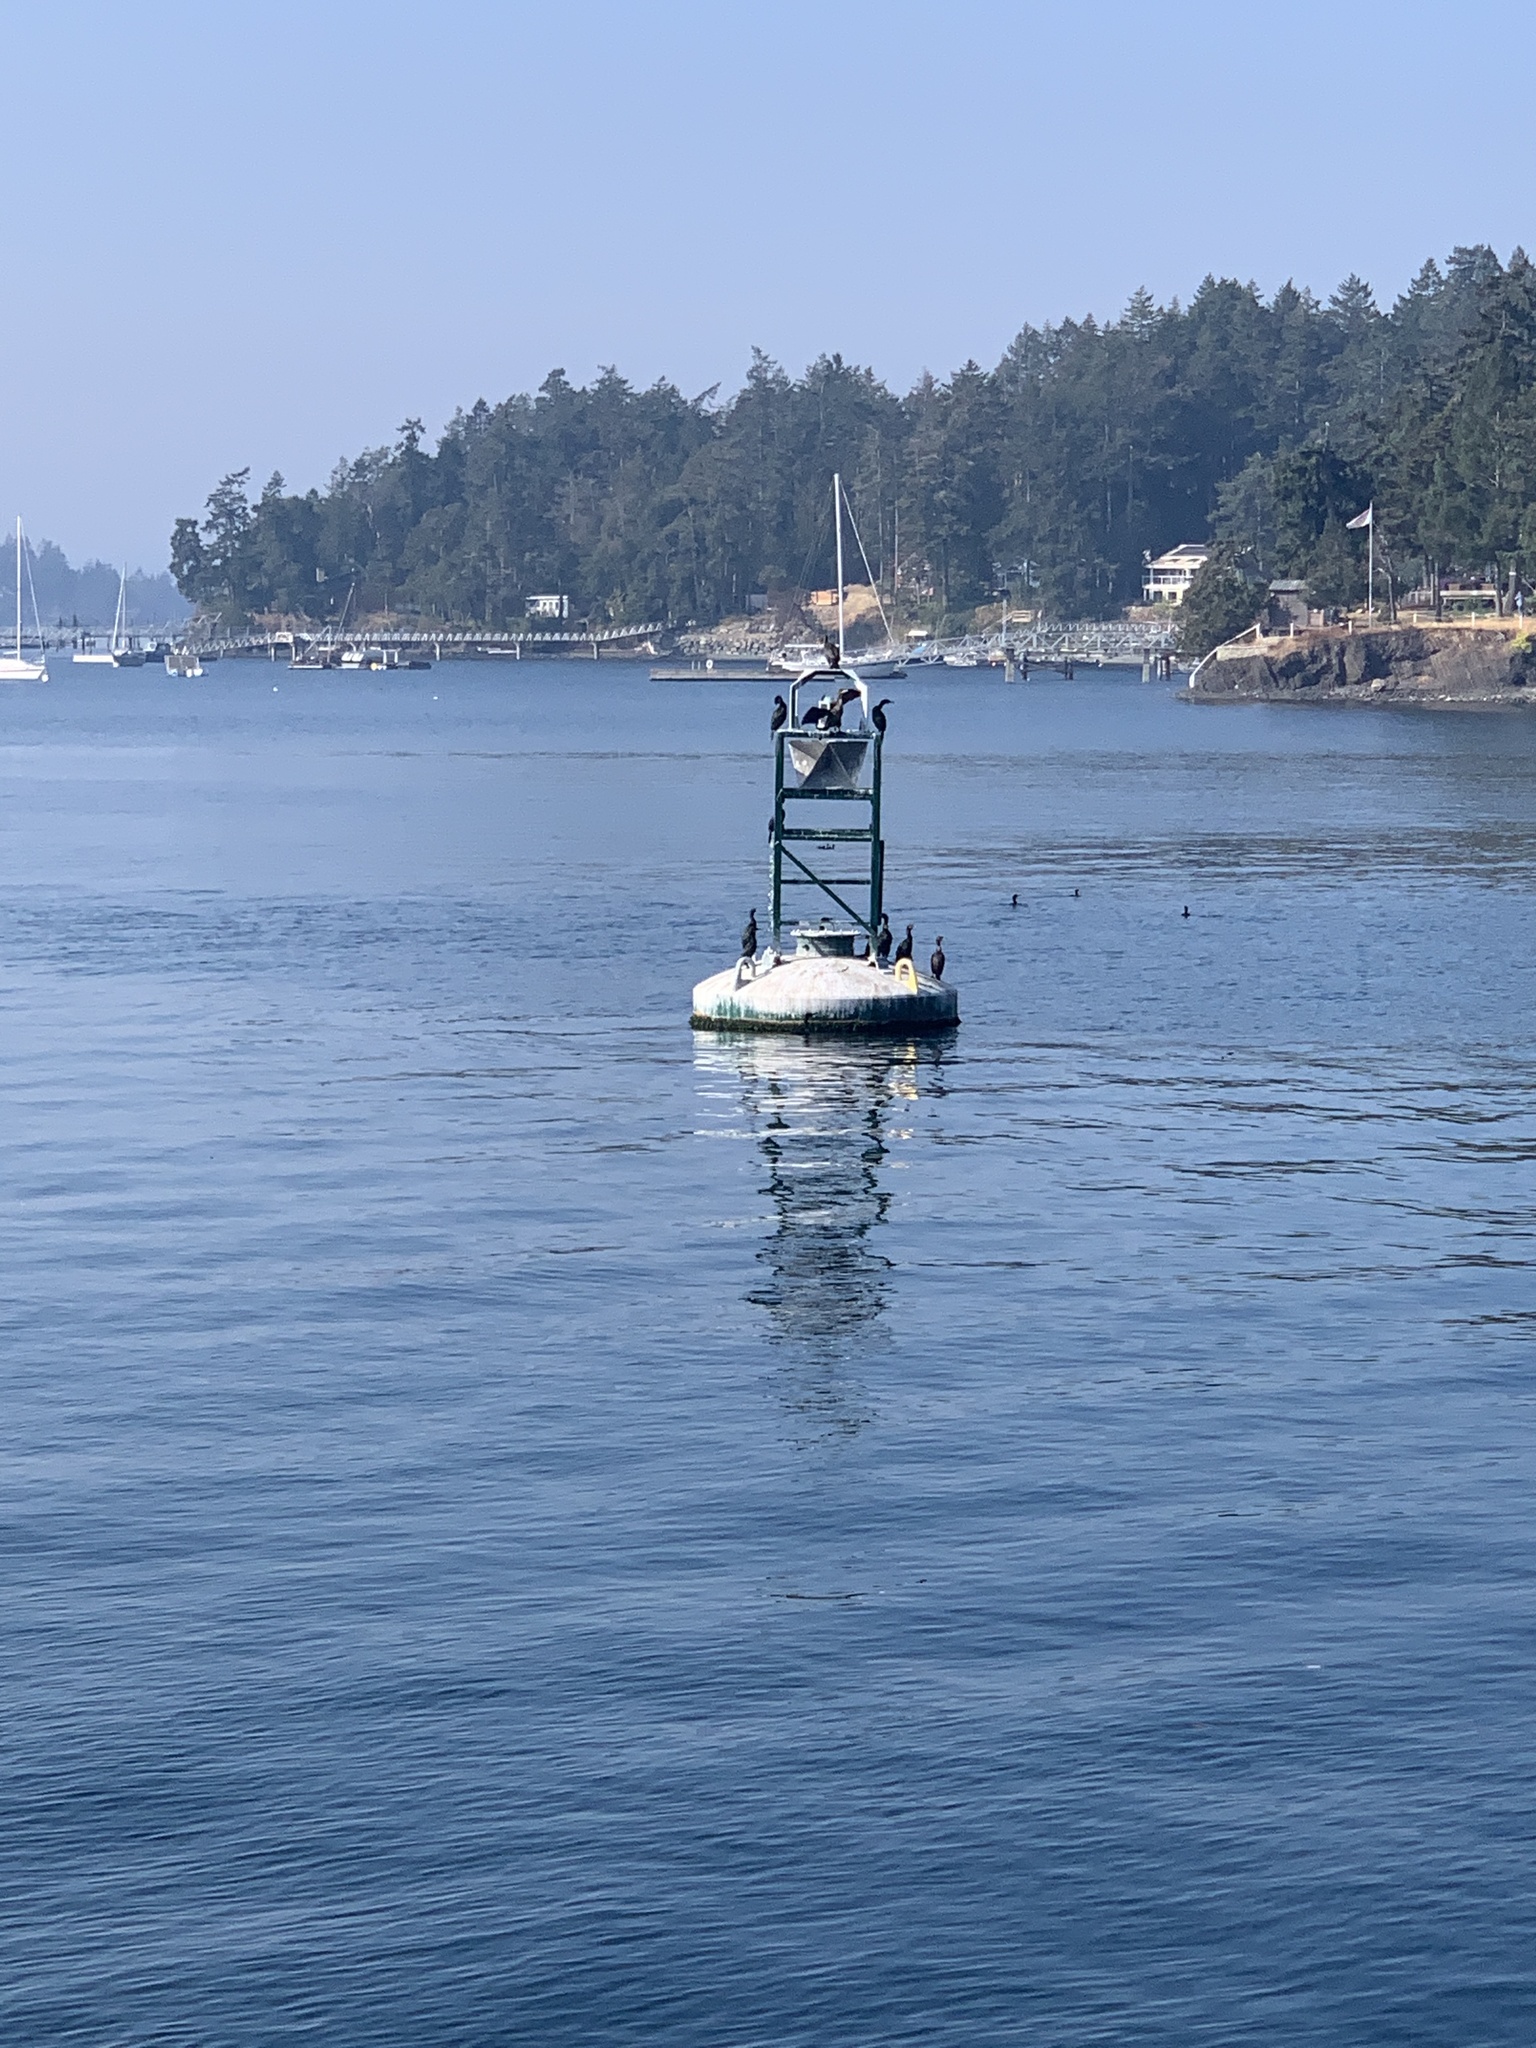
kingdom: Animalia
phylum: Chordata
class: Aves
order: Suliformes
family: Phalacrocoracidae
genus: Phalacrocorax
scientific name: Phalacrocorax pelagicus
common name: Pelagic cormorant
